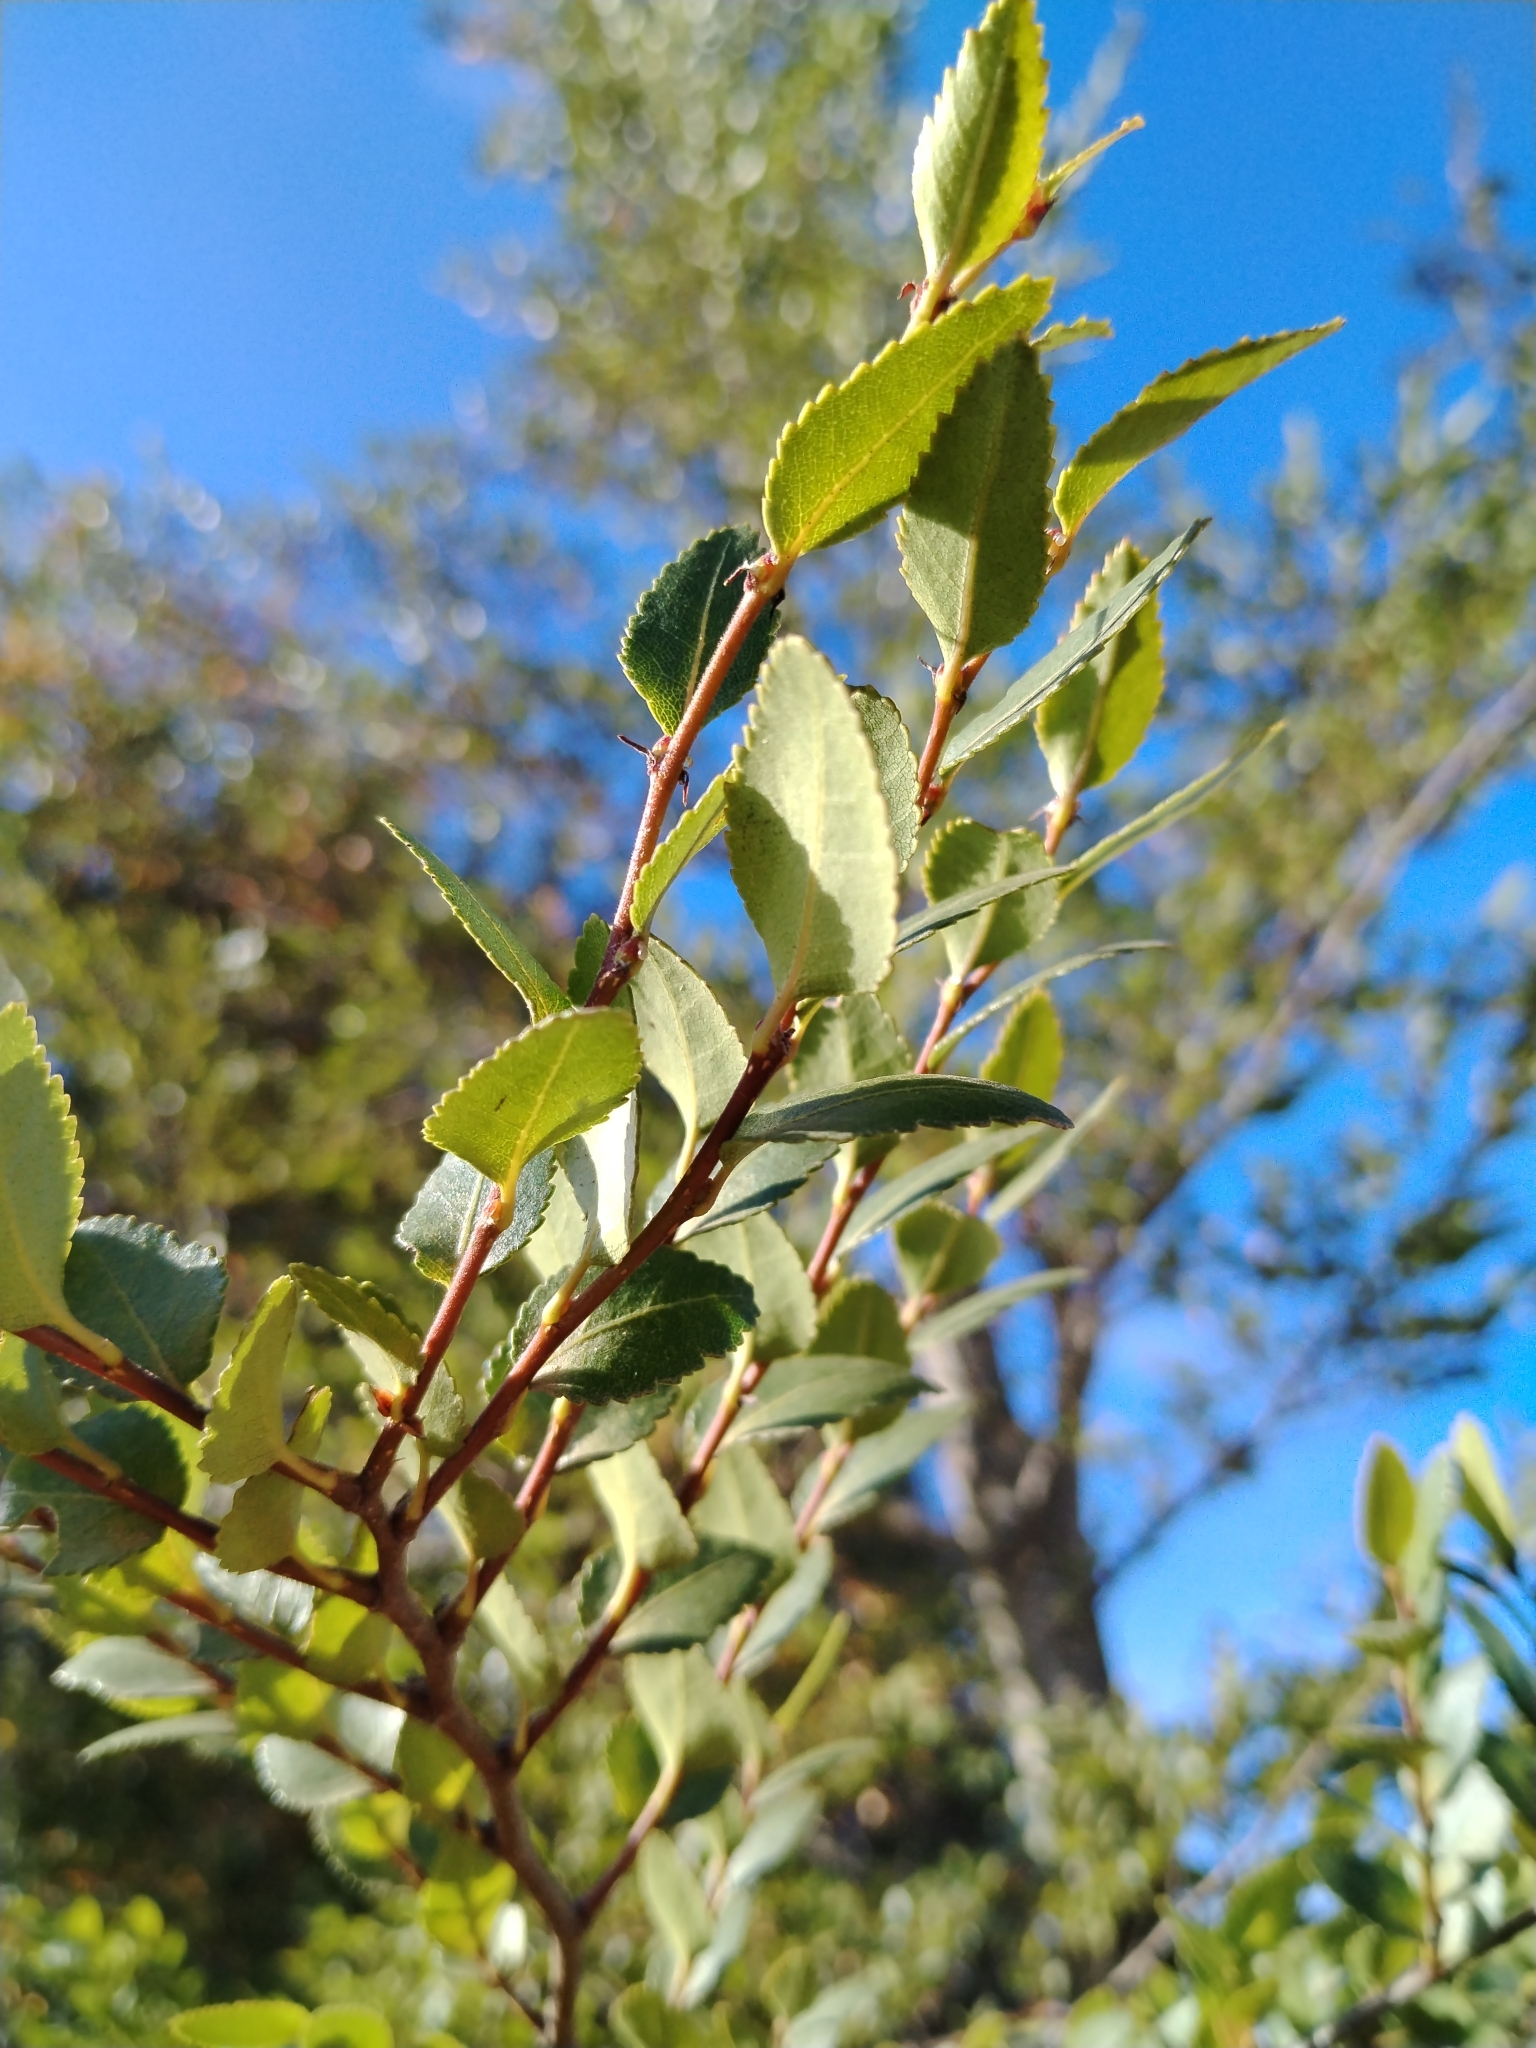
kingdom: Plantae
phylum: Tracheophyta
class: Magnoliopsida
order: Fagales
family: Nothofagaceae
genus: Nothofagus
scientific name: Nothofagus dombeyi
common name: Coigue
